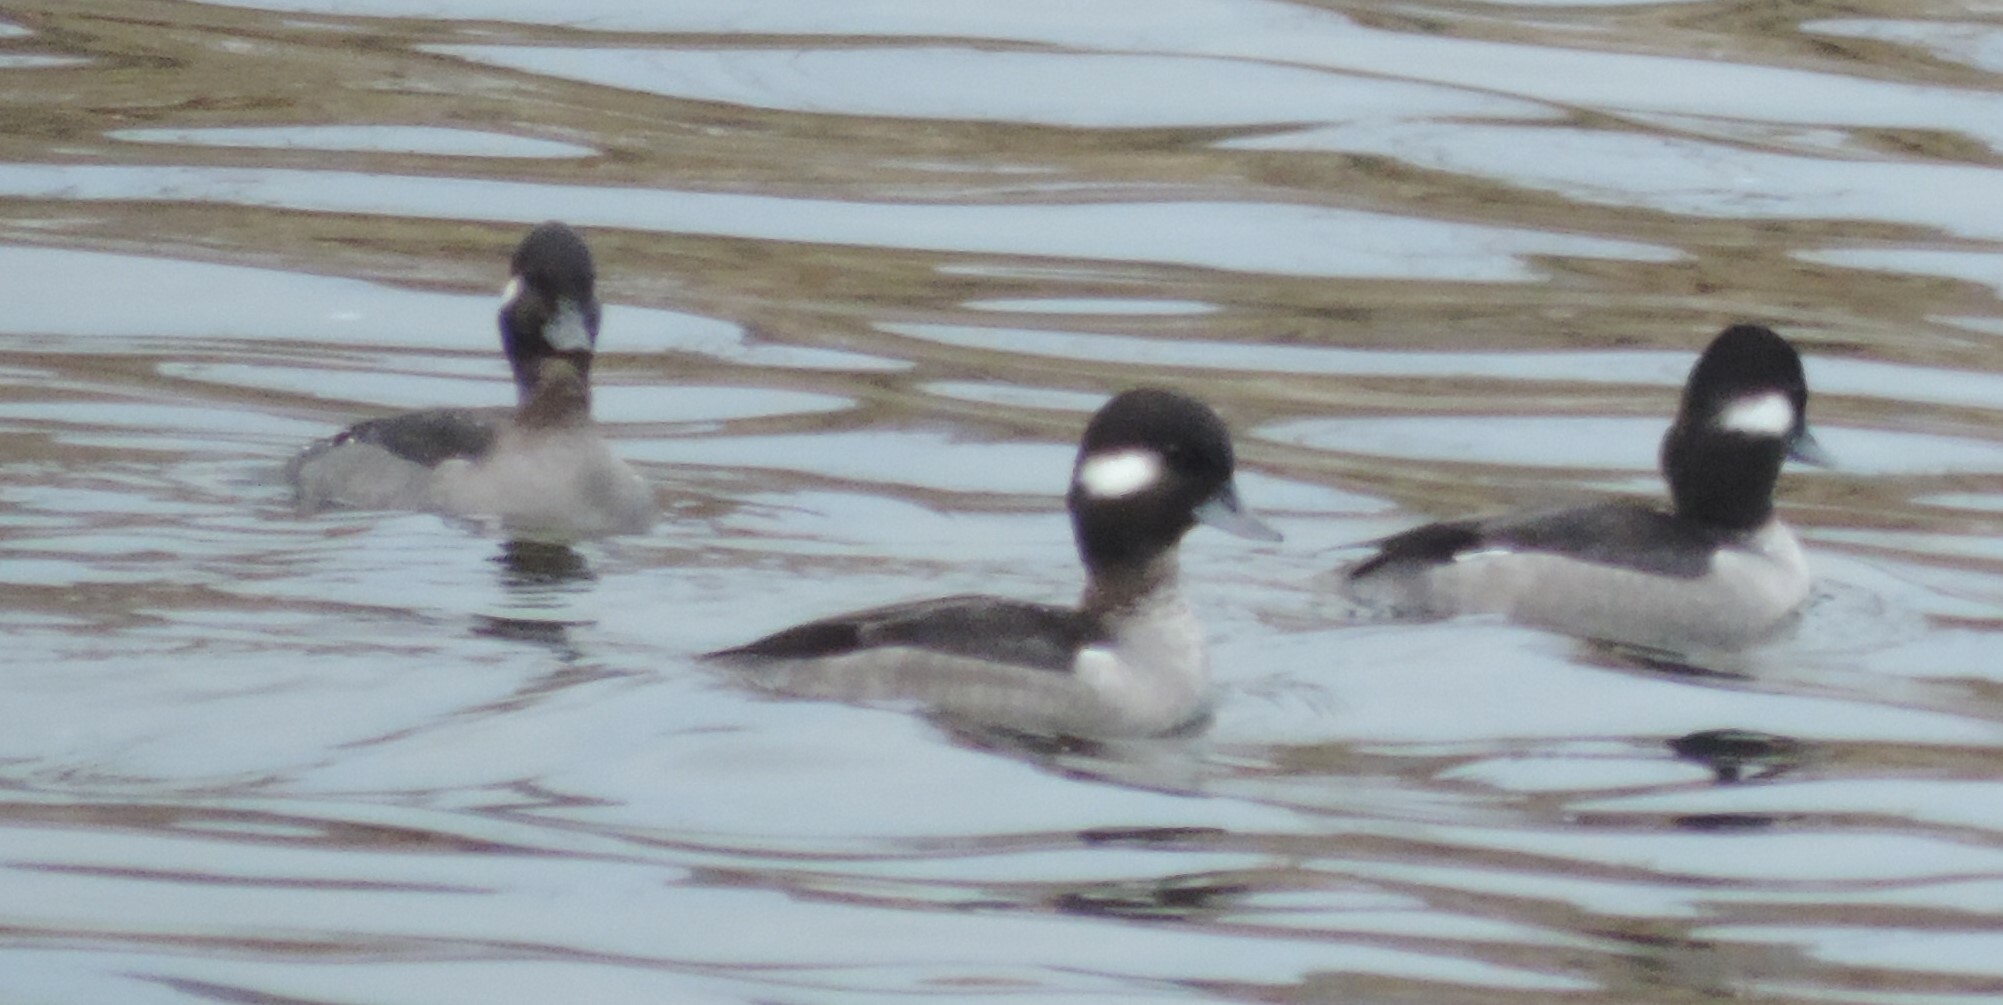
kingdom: Animalia
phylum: Chordata
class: Aves
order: Anseriformes
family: Anatidae
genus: Bucephala
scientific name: Bucephala albeola
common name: Bufflehead
